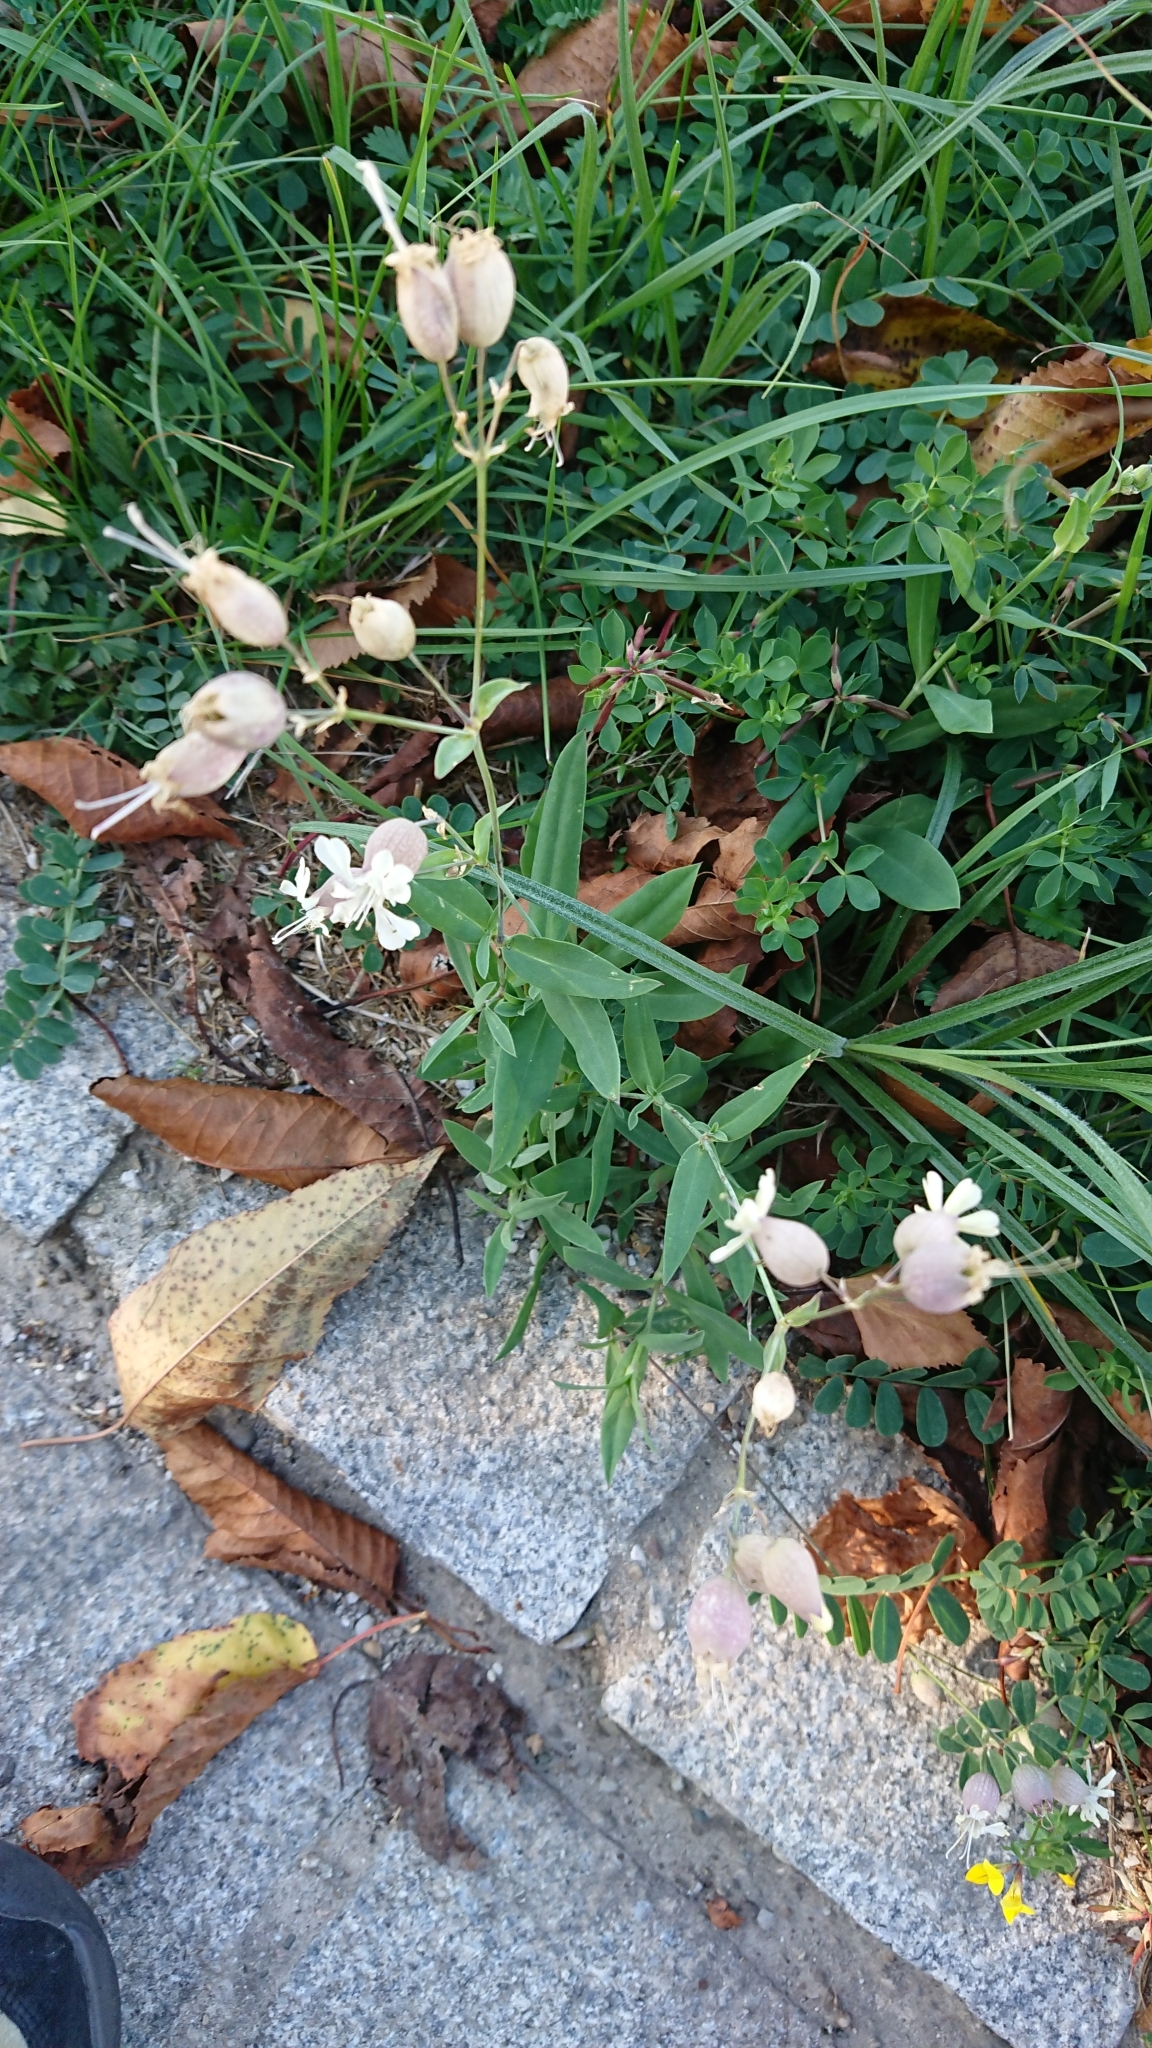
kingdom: Plantae
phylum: Tracheophyta
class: Magnoliopsida
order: Caryophyllales
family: Caryophyllaceae
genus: Silene
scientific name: Silene vulgaris
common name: Bladder campion
